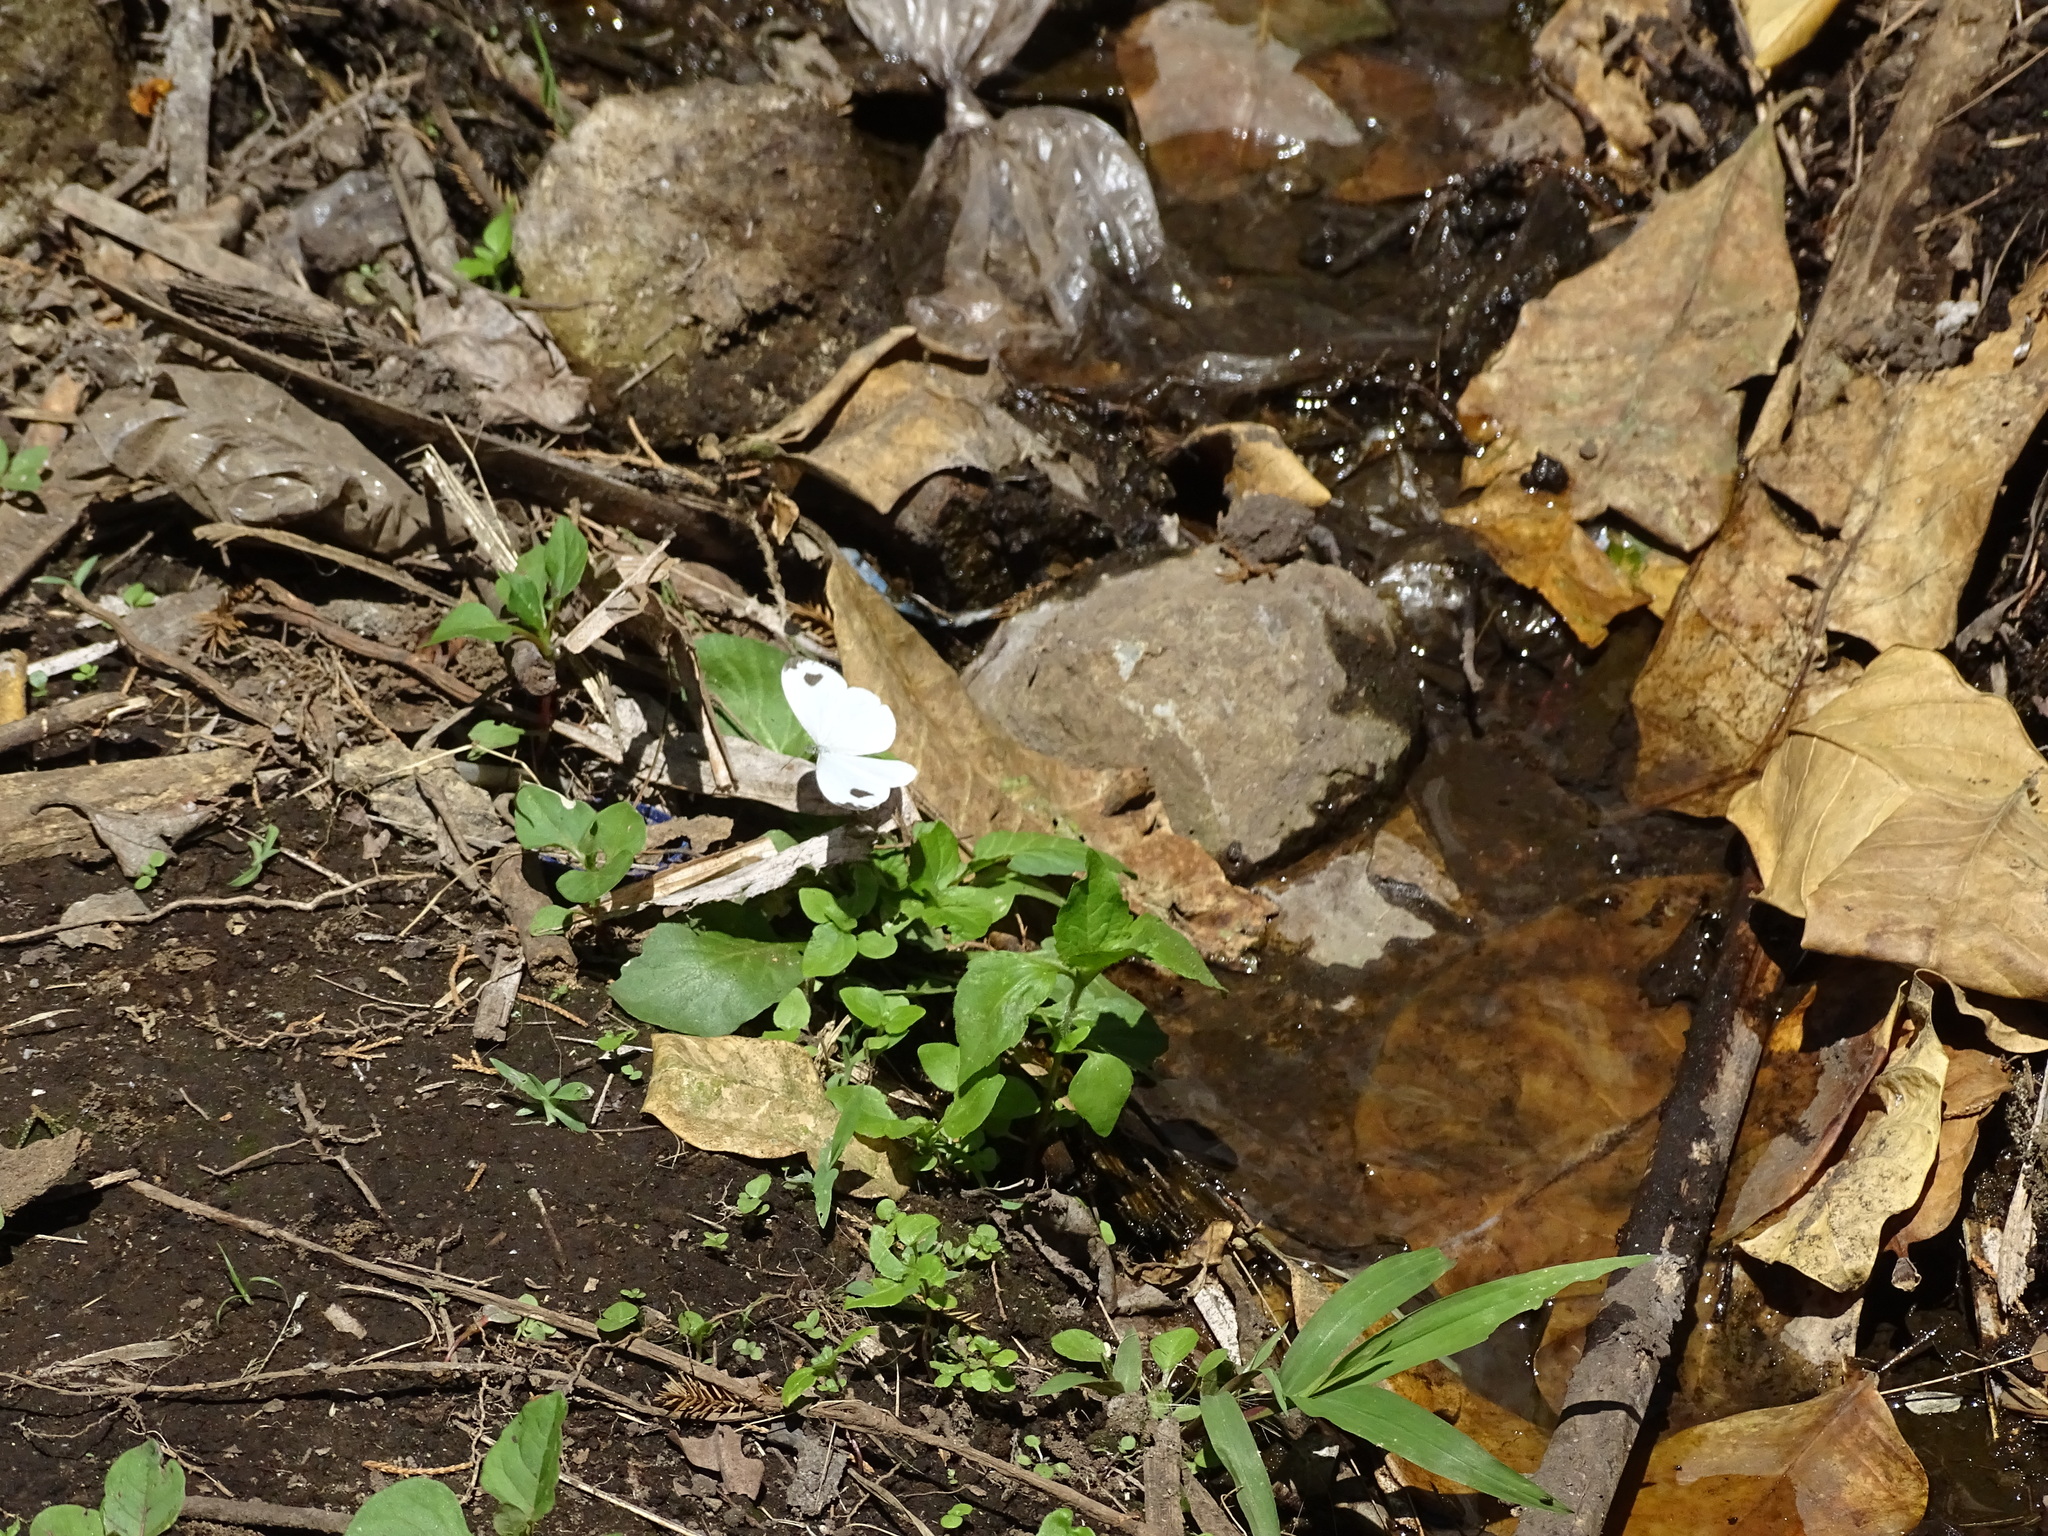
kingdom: Animalia
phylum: Arthropoda
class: Insecta
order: Lepidoptera
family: Pieridae
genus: Leptosia
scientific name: Leptosia nina
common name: Psyche
